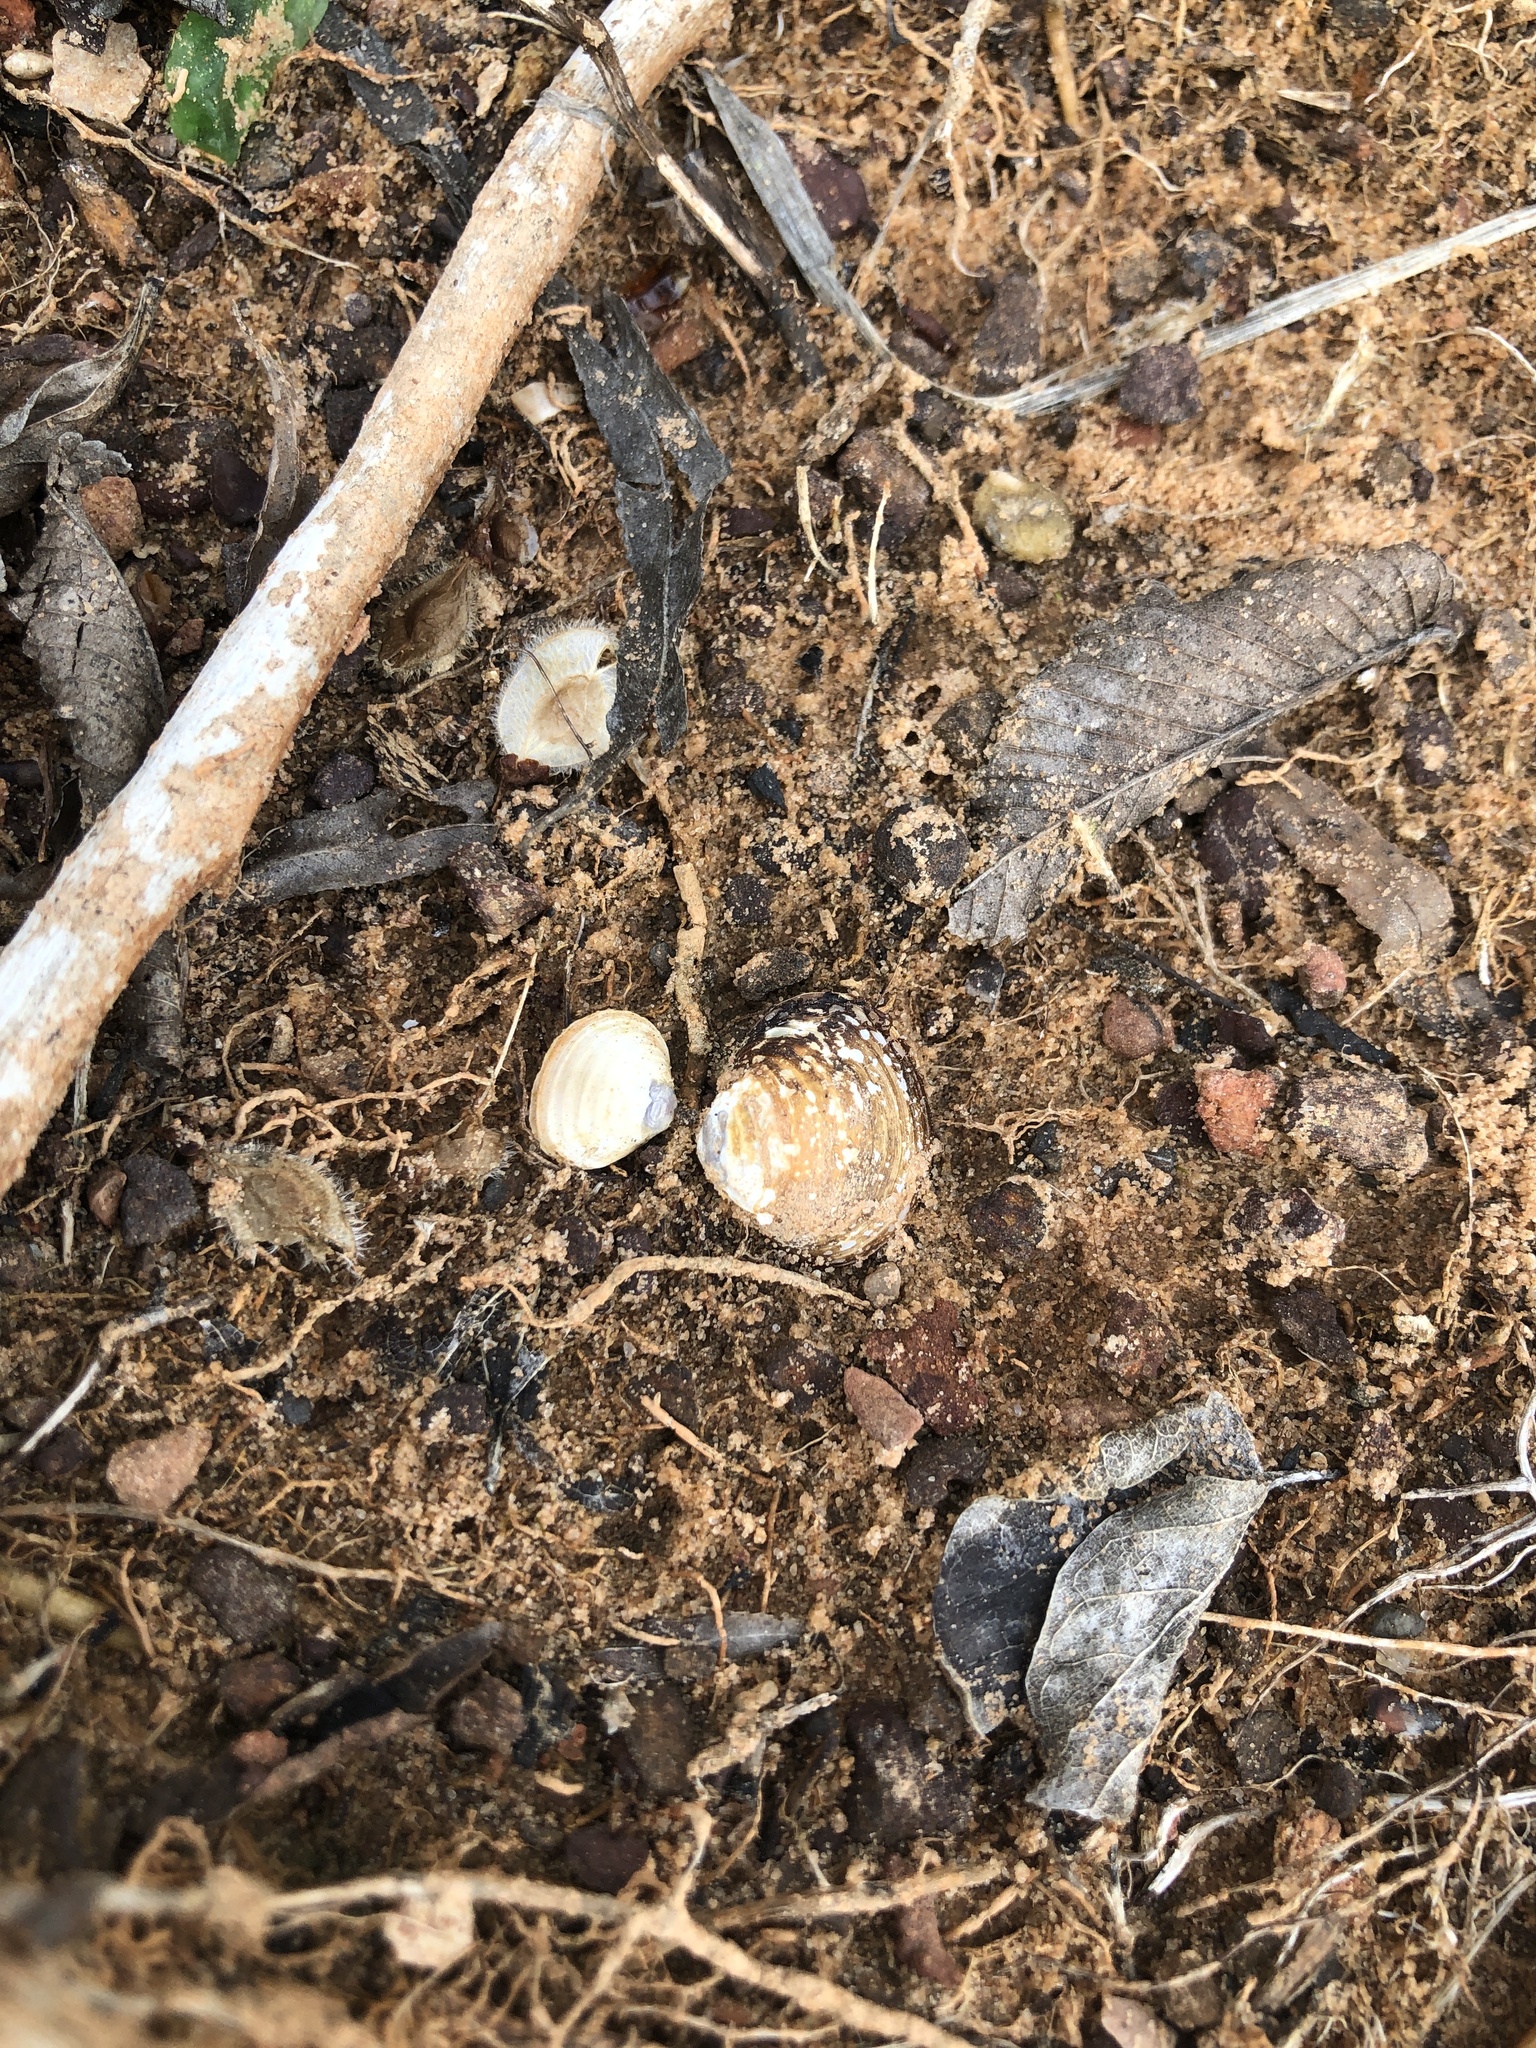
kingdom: Animalia
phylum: Mollusca
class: Bivalvia
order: Venerida
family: Cyrenidae
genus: Corbicula
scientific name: Corbicula fluminea
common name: Asian clam
